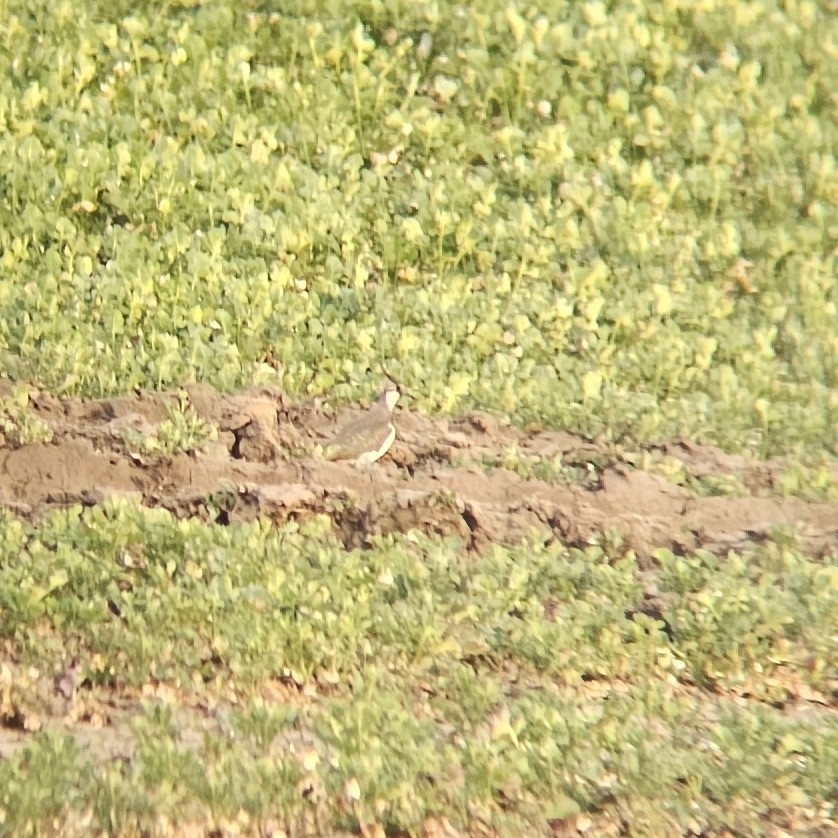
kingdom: Animalia
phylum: Chordata
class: Aves
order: Charadriiformes
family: Charadriidae
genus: Vanellus
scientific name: Vanellus vanellus
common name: Northern lapwing
